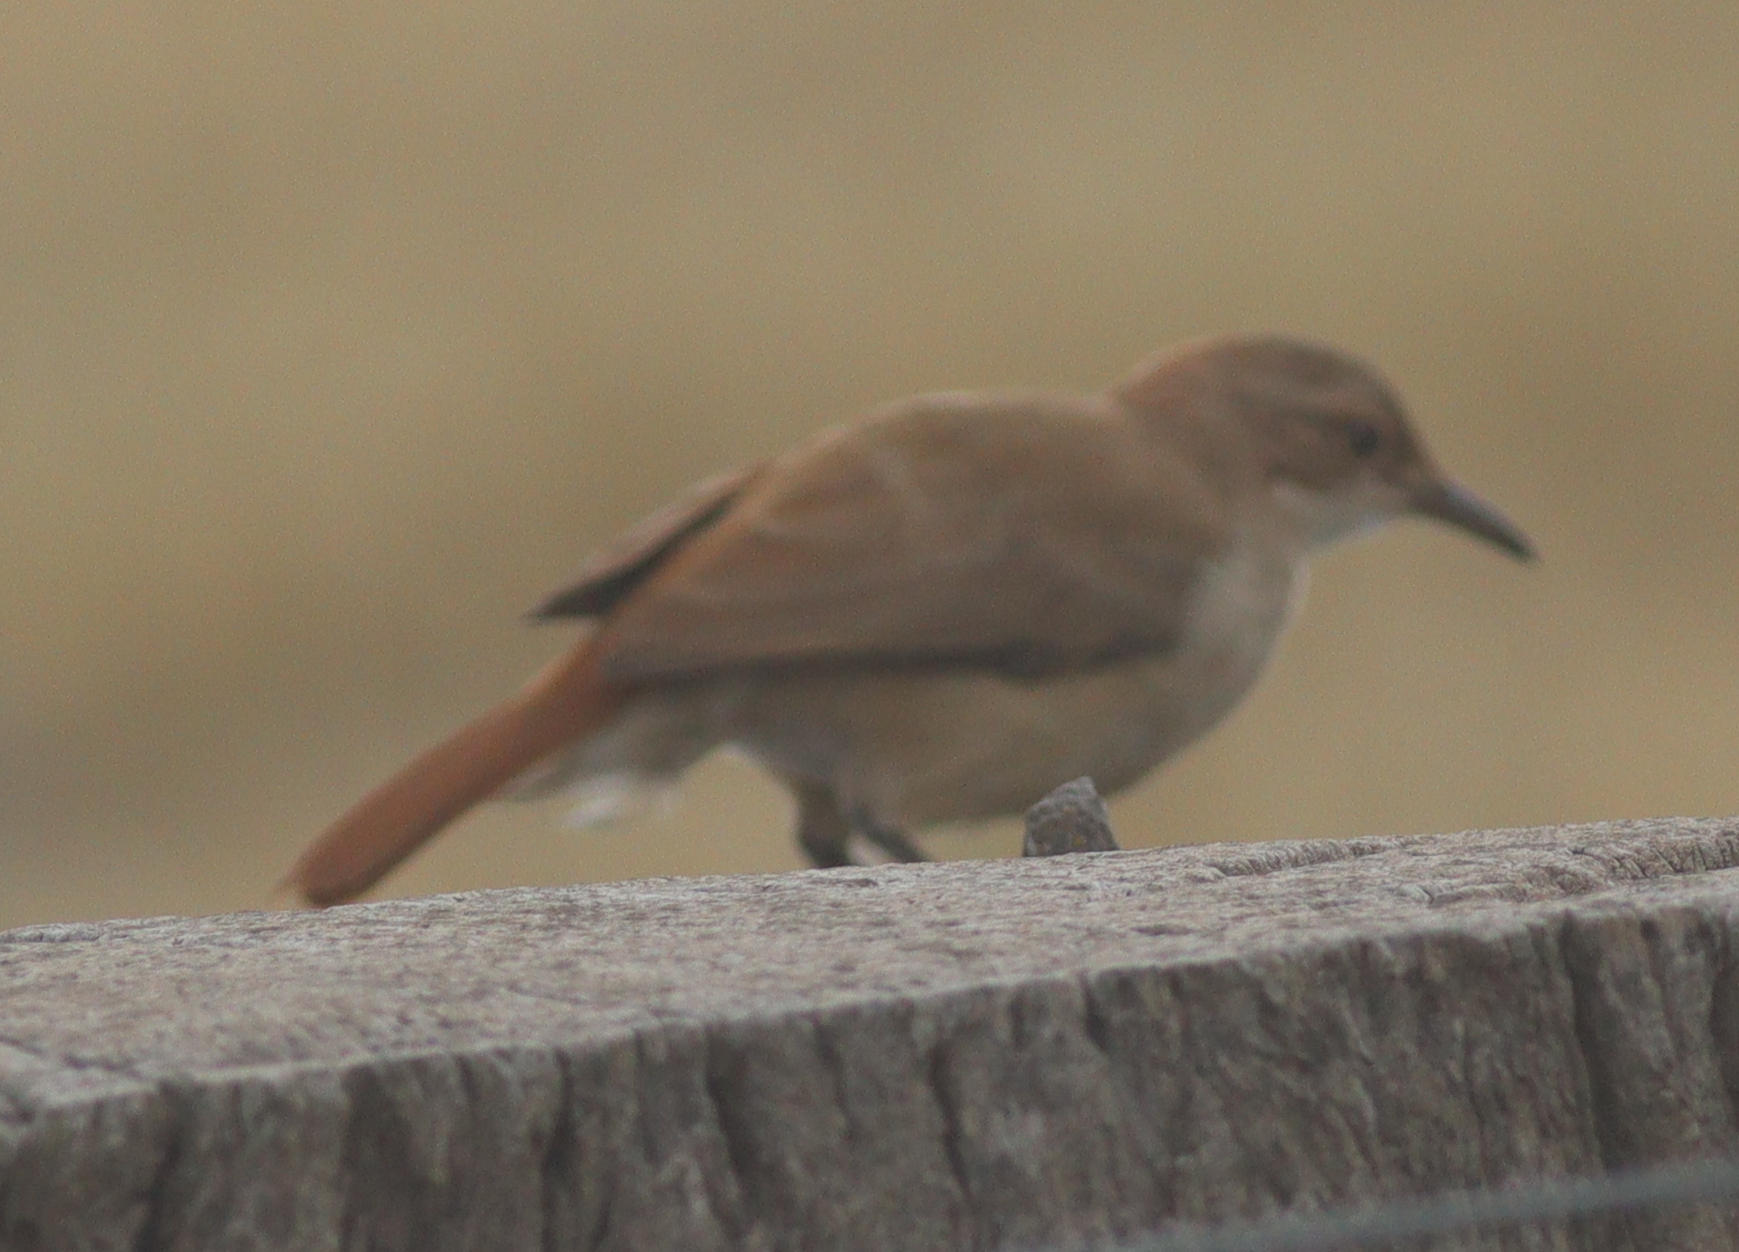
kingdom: Animalia
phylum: Chordata
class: Aves
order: Passeriformes
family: Furnariidae
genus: Furnarius
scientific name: Furnarius rufus
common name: Rufous hornero
